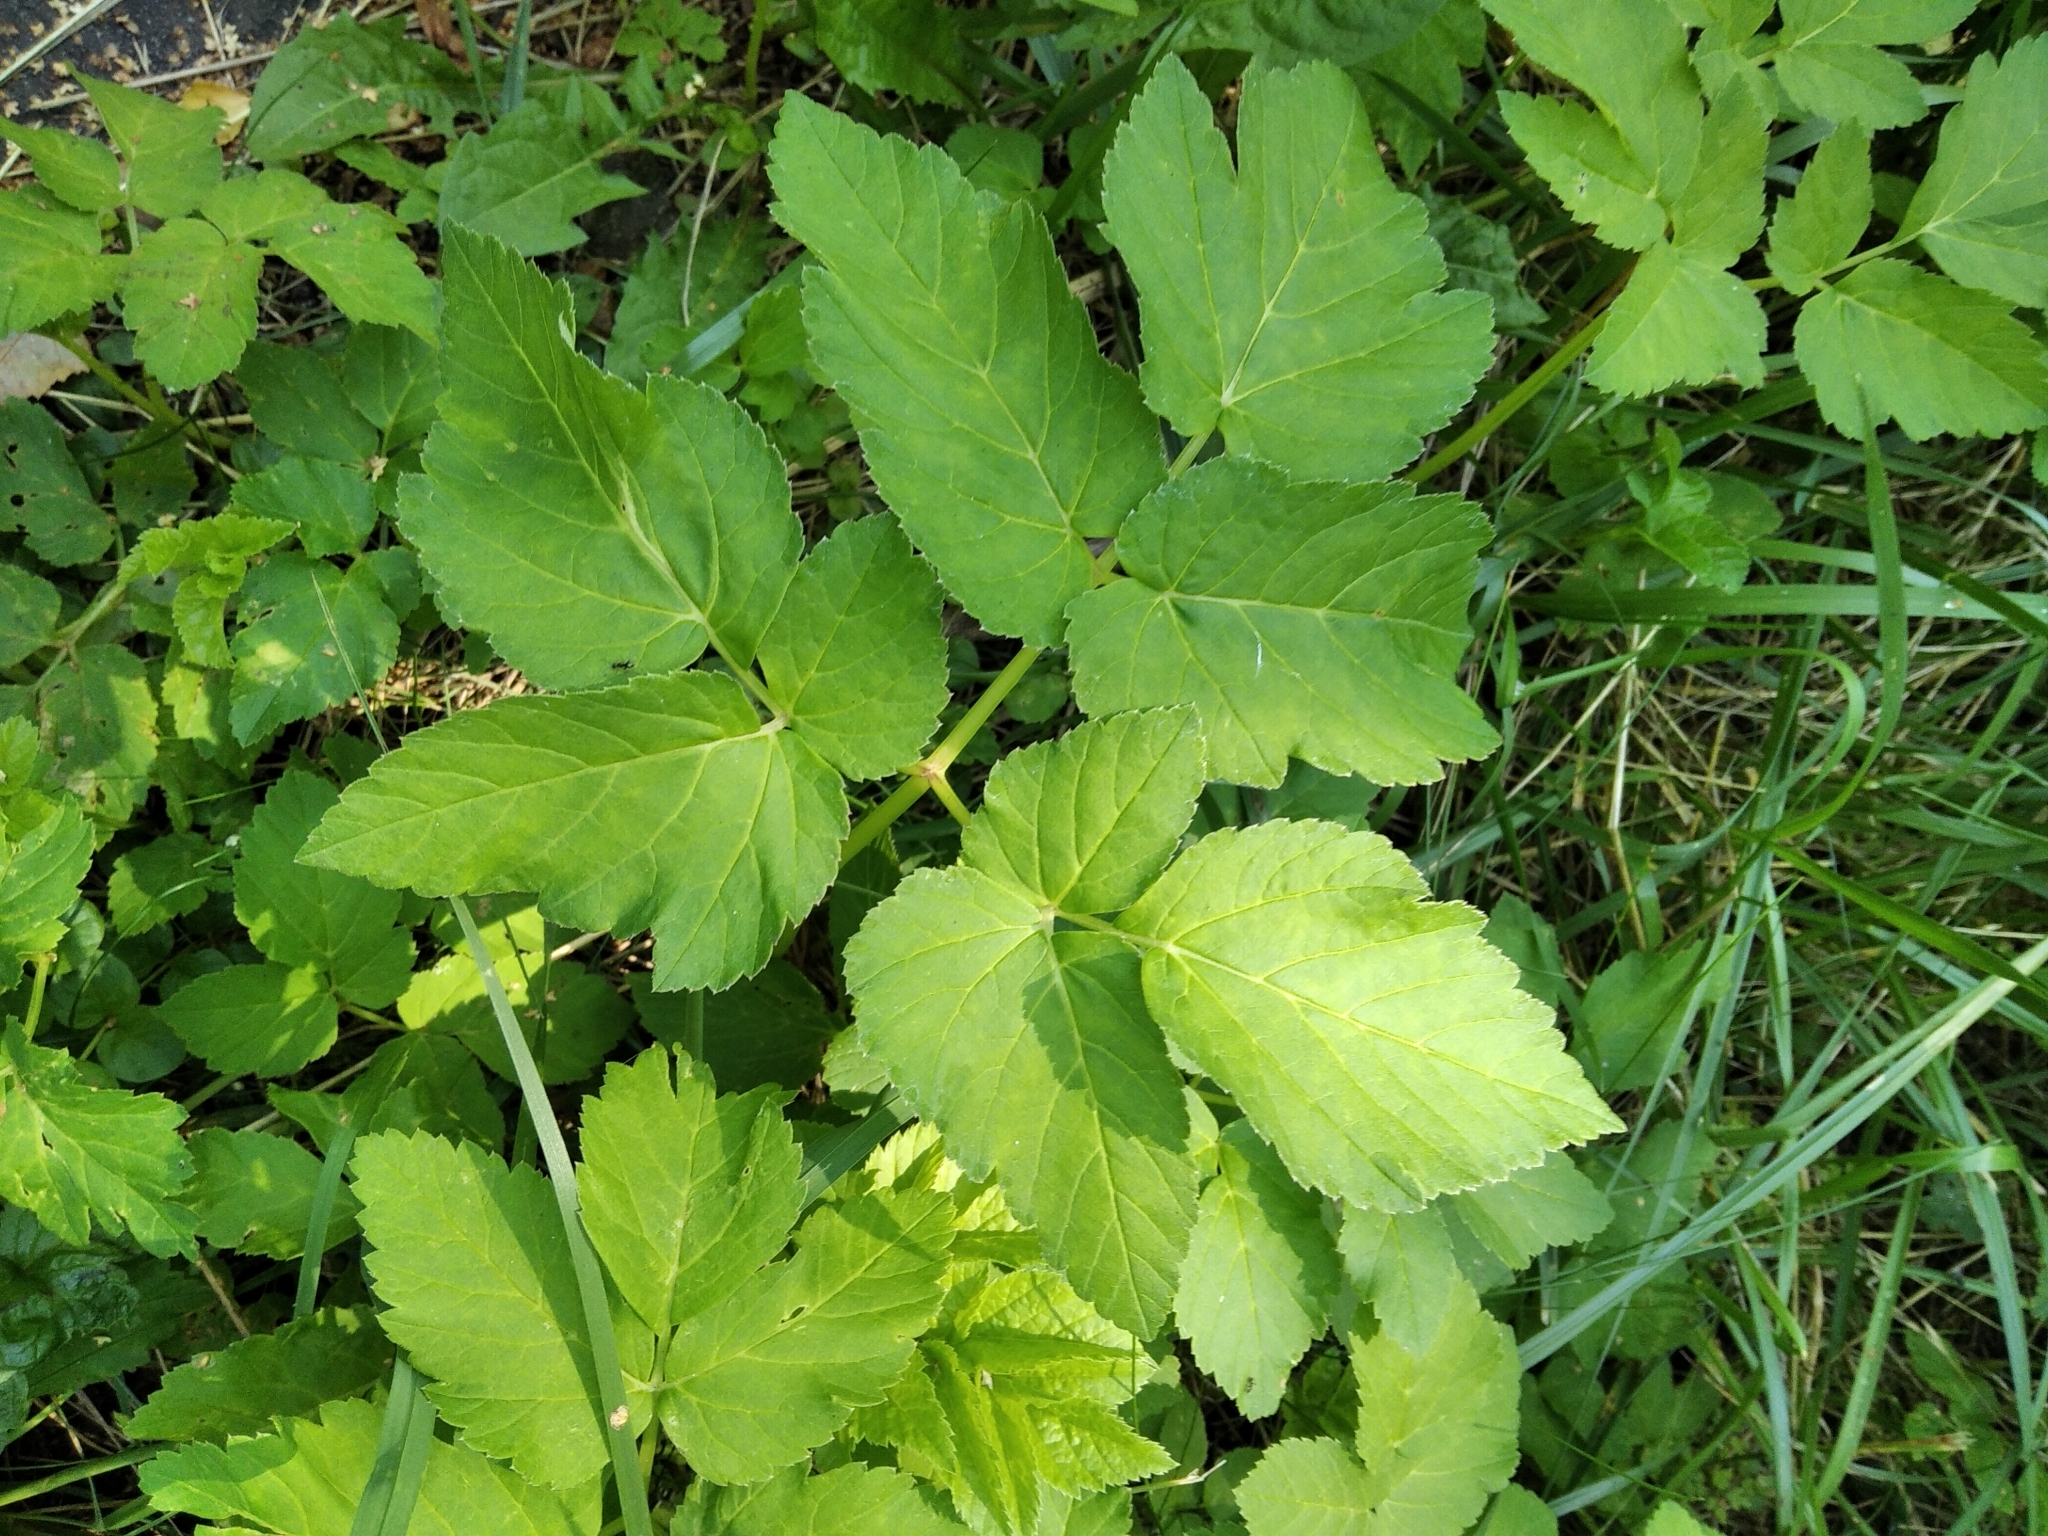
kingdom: Plantae
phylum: Tracheophyta
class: Magnoliopsida
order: Apiales
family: Apiaceae
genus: Aegopodium
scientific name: Aegopodium podagraria
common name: Ground-elder
